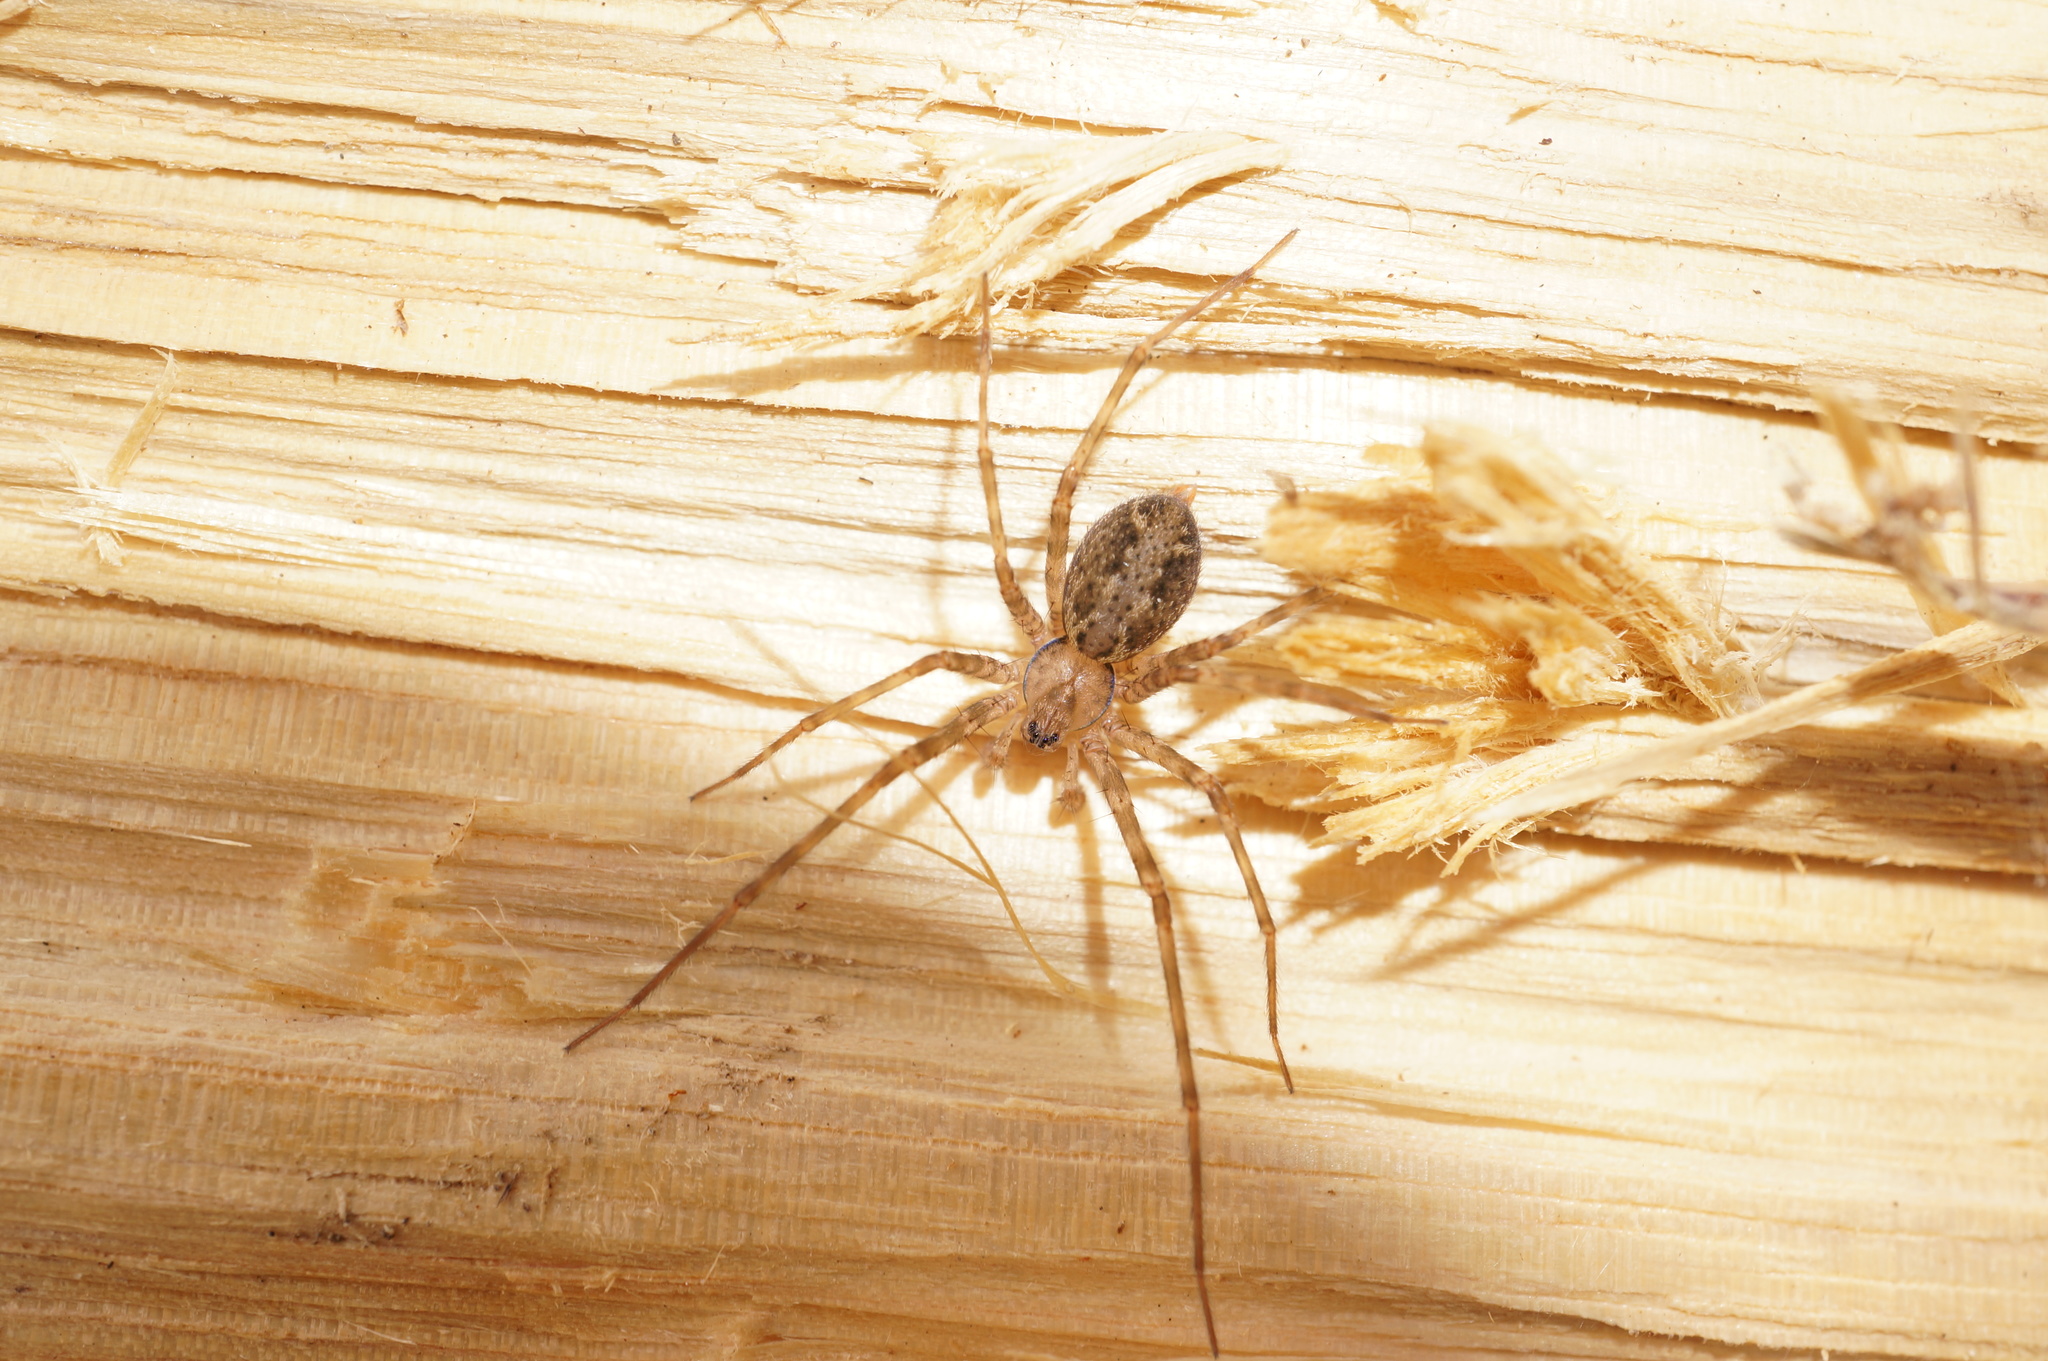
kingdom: Animalia
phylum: Arthropoda
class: Arachnida
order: Araneae
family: Stiphidiidae
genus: Stiphidion
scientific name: Stiphidion facetum
